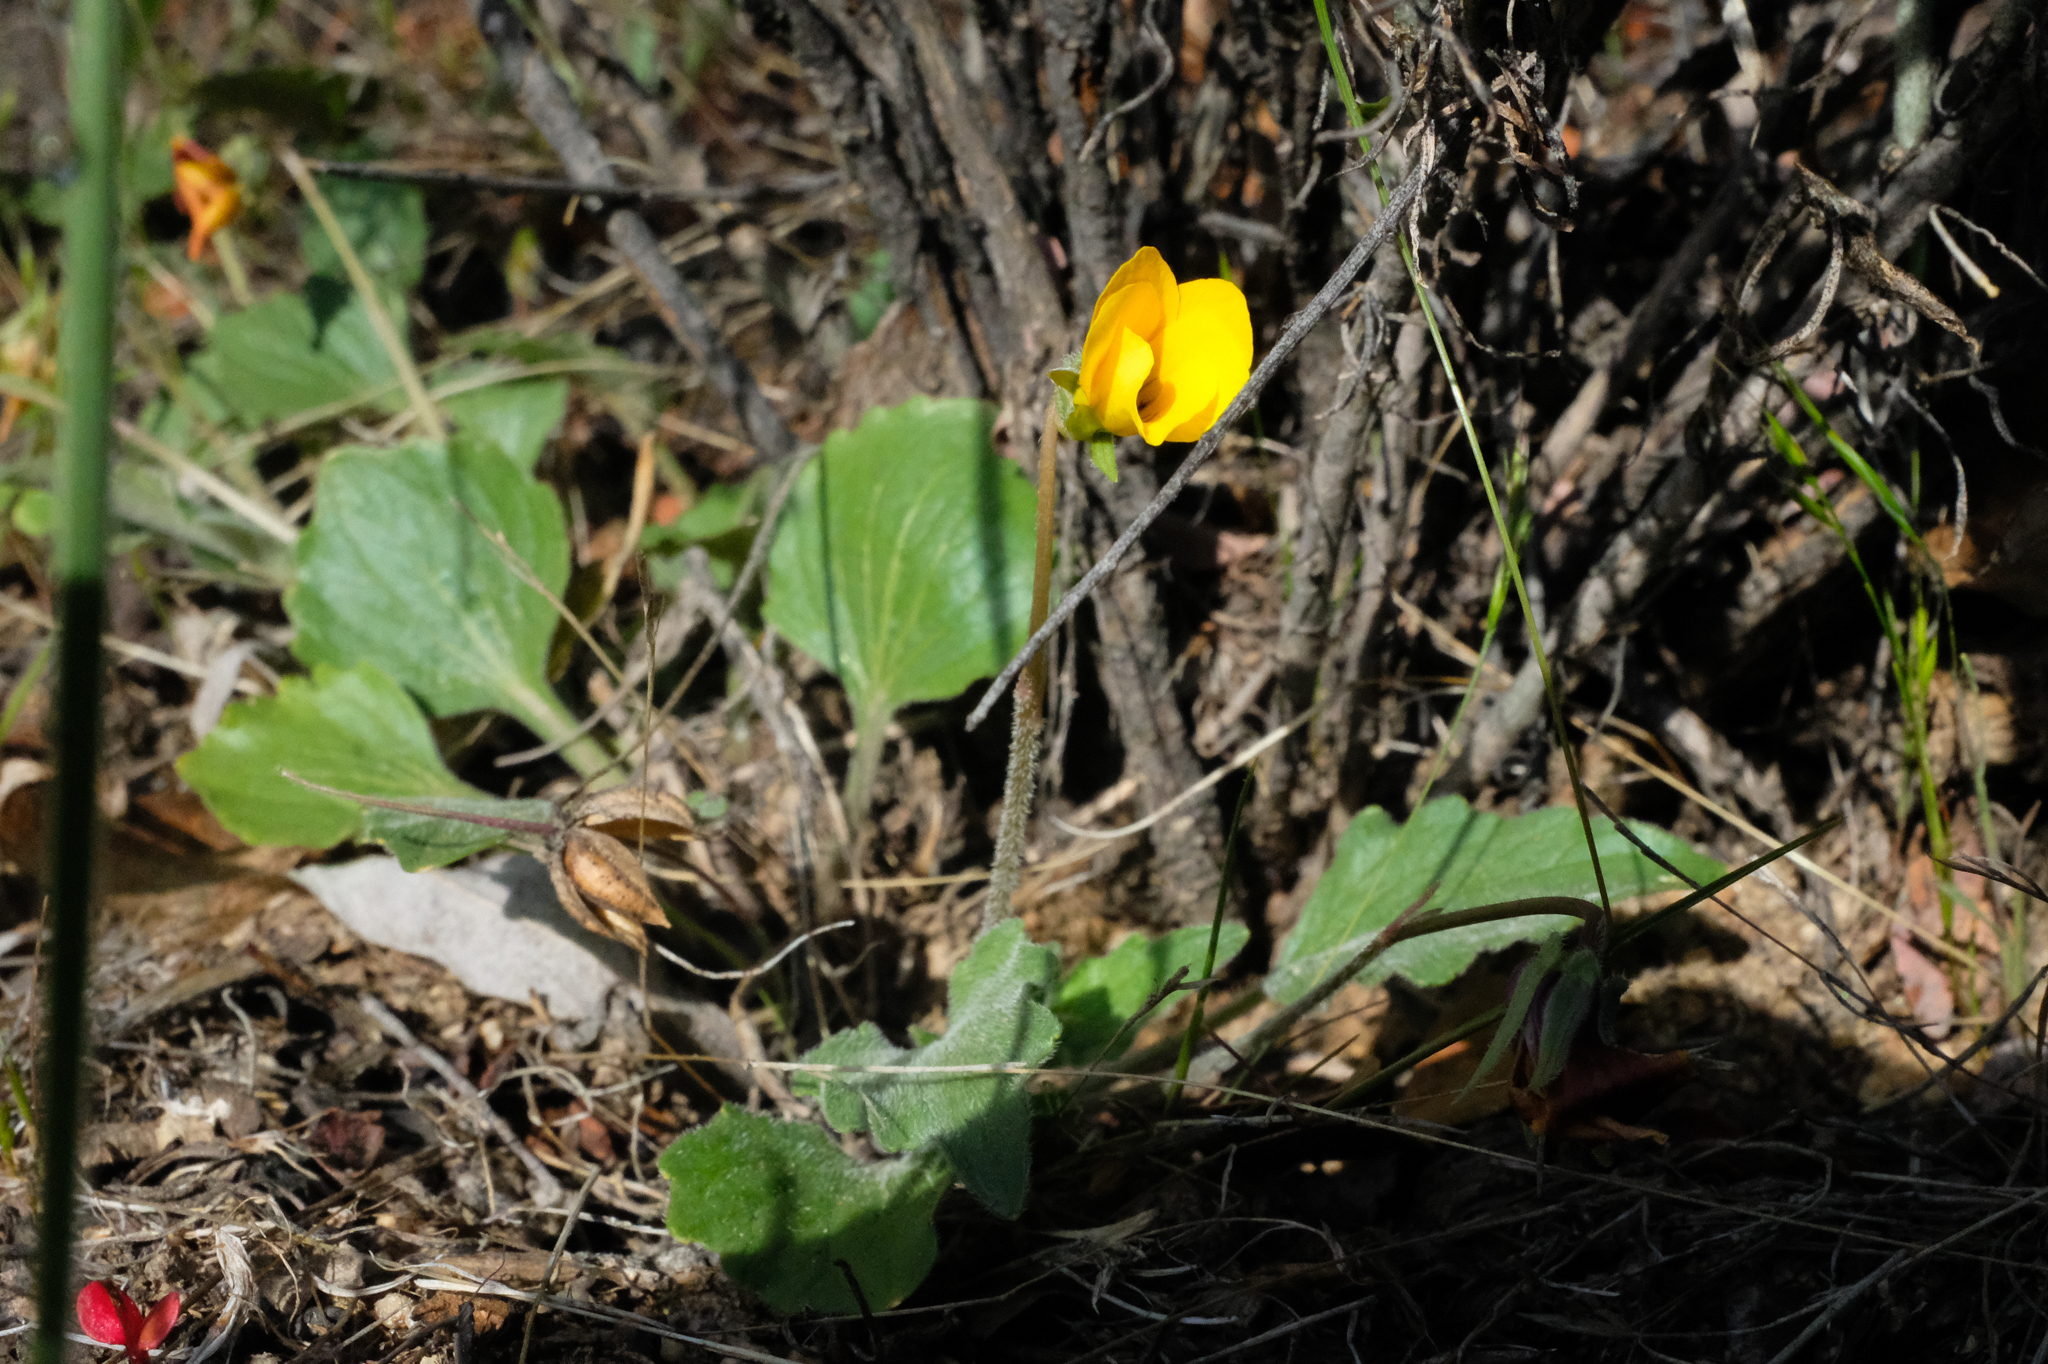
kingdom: Plantae
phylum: Tracheophyta
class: Magnoliopsida
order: Malpighiales
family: Violaceae
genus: Viola
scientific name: Viola purpurea
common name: Pine violet
